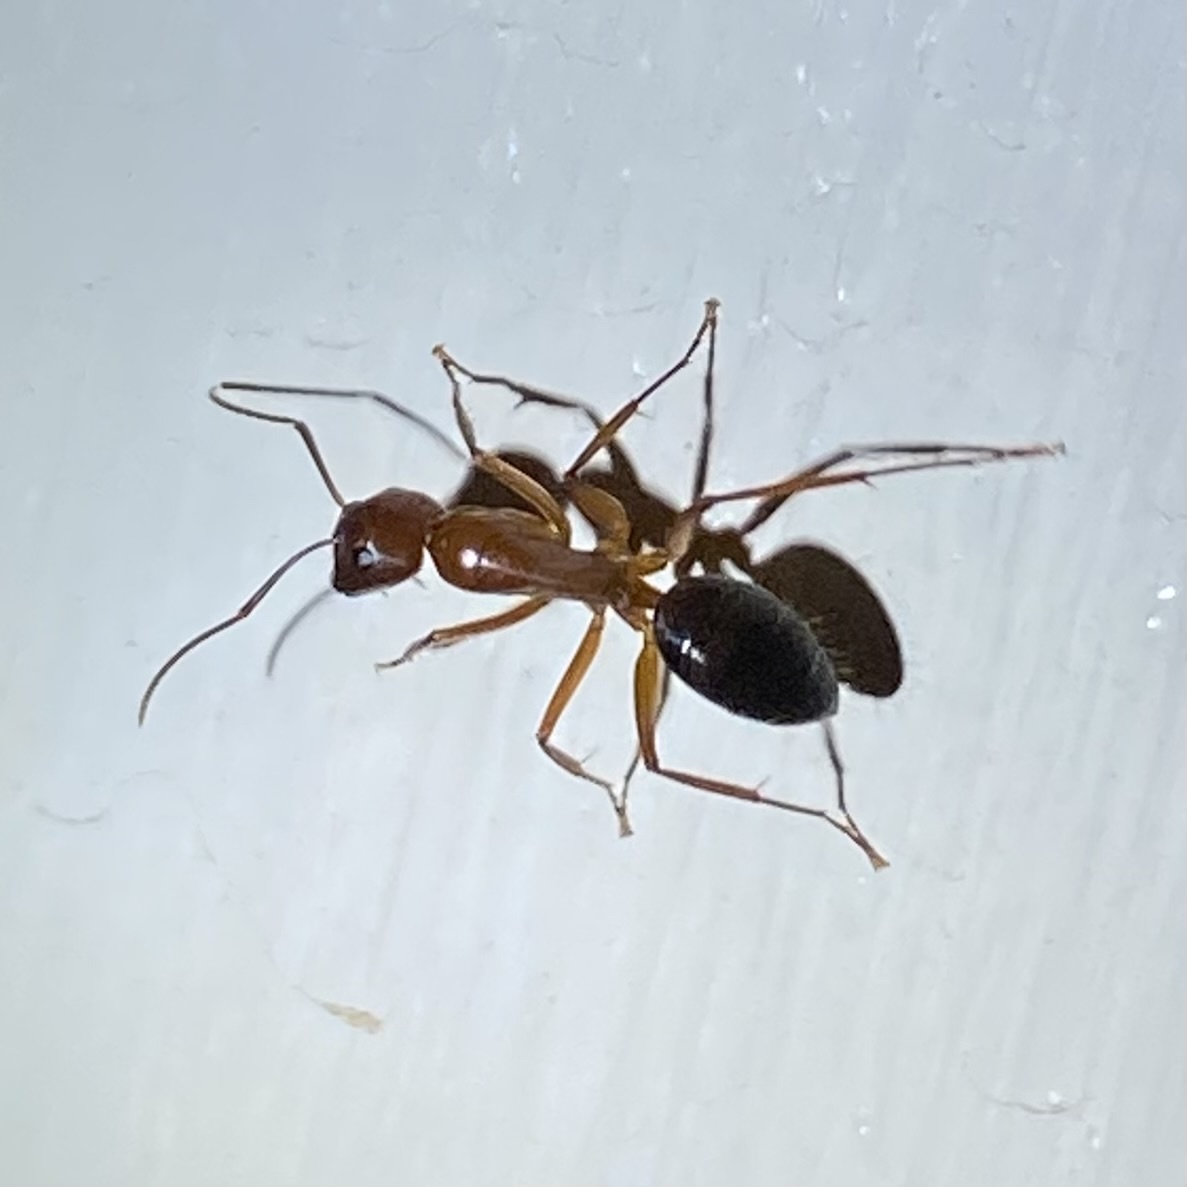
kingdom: Animalia
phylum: Arthropoda
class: Insecta
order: Hymenoptera
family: Formicidae
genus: Camponotus
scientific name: Camponotus
